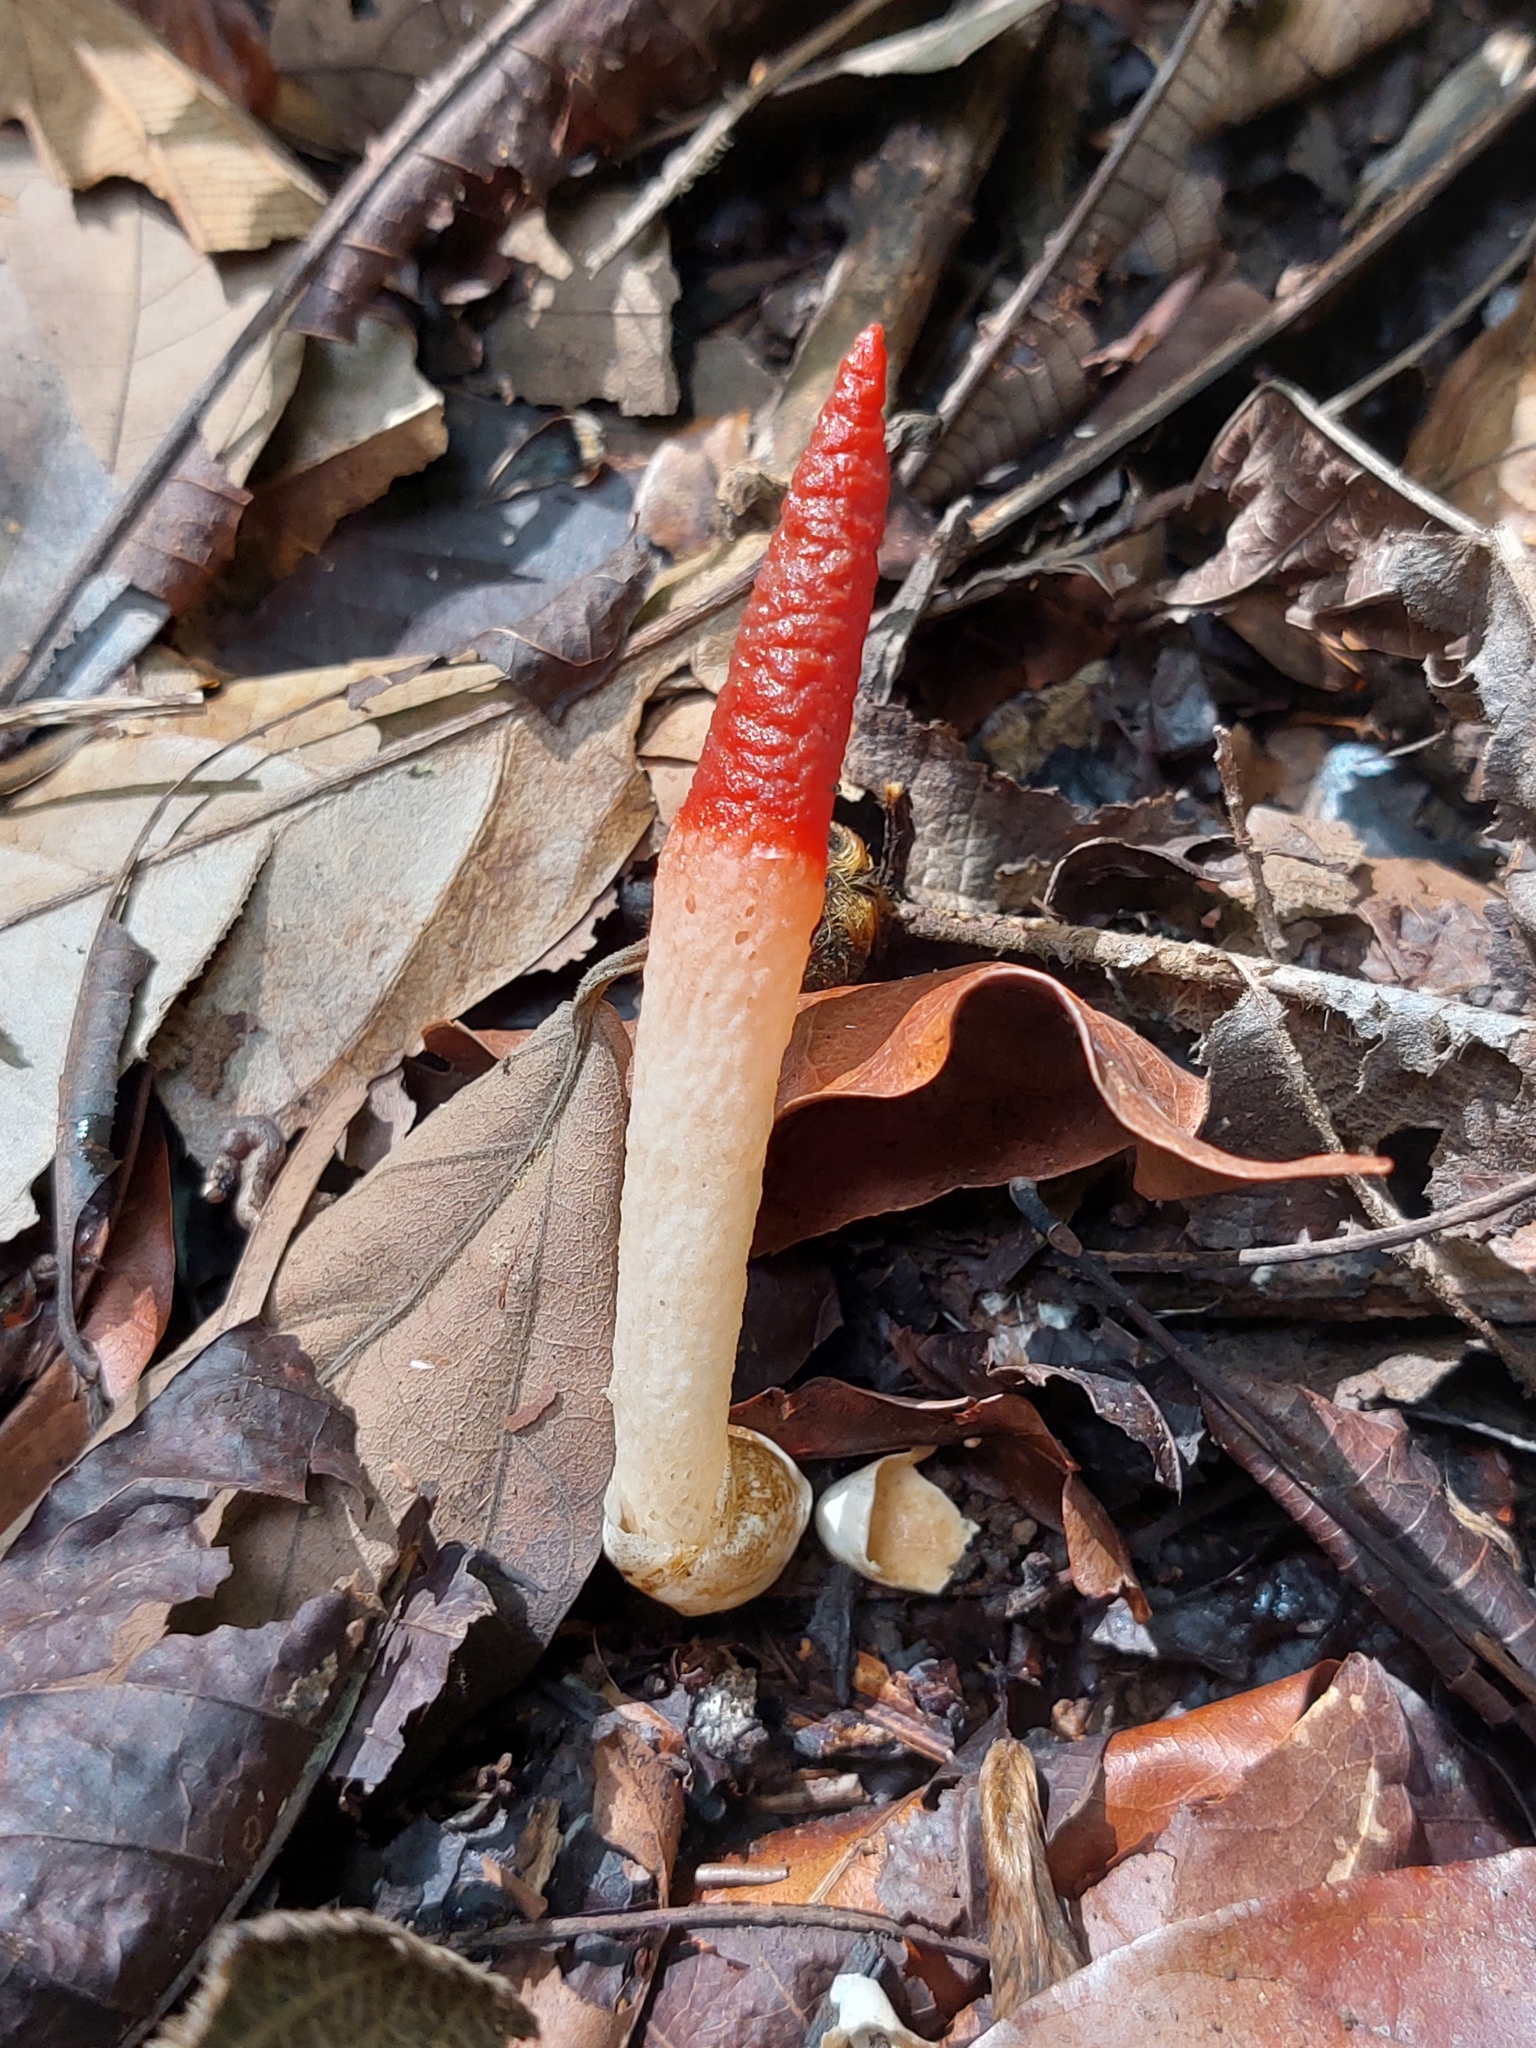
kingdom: Fungi
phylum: Basidiomycota
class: Agaricomycetes
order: Phallales
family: Phallaceae
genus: Mutinus
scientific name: Mutinus argentinus
